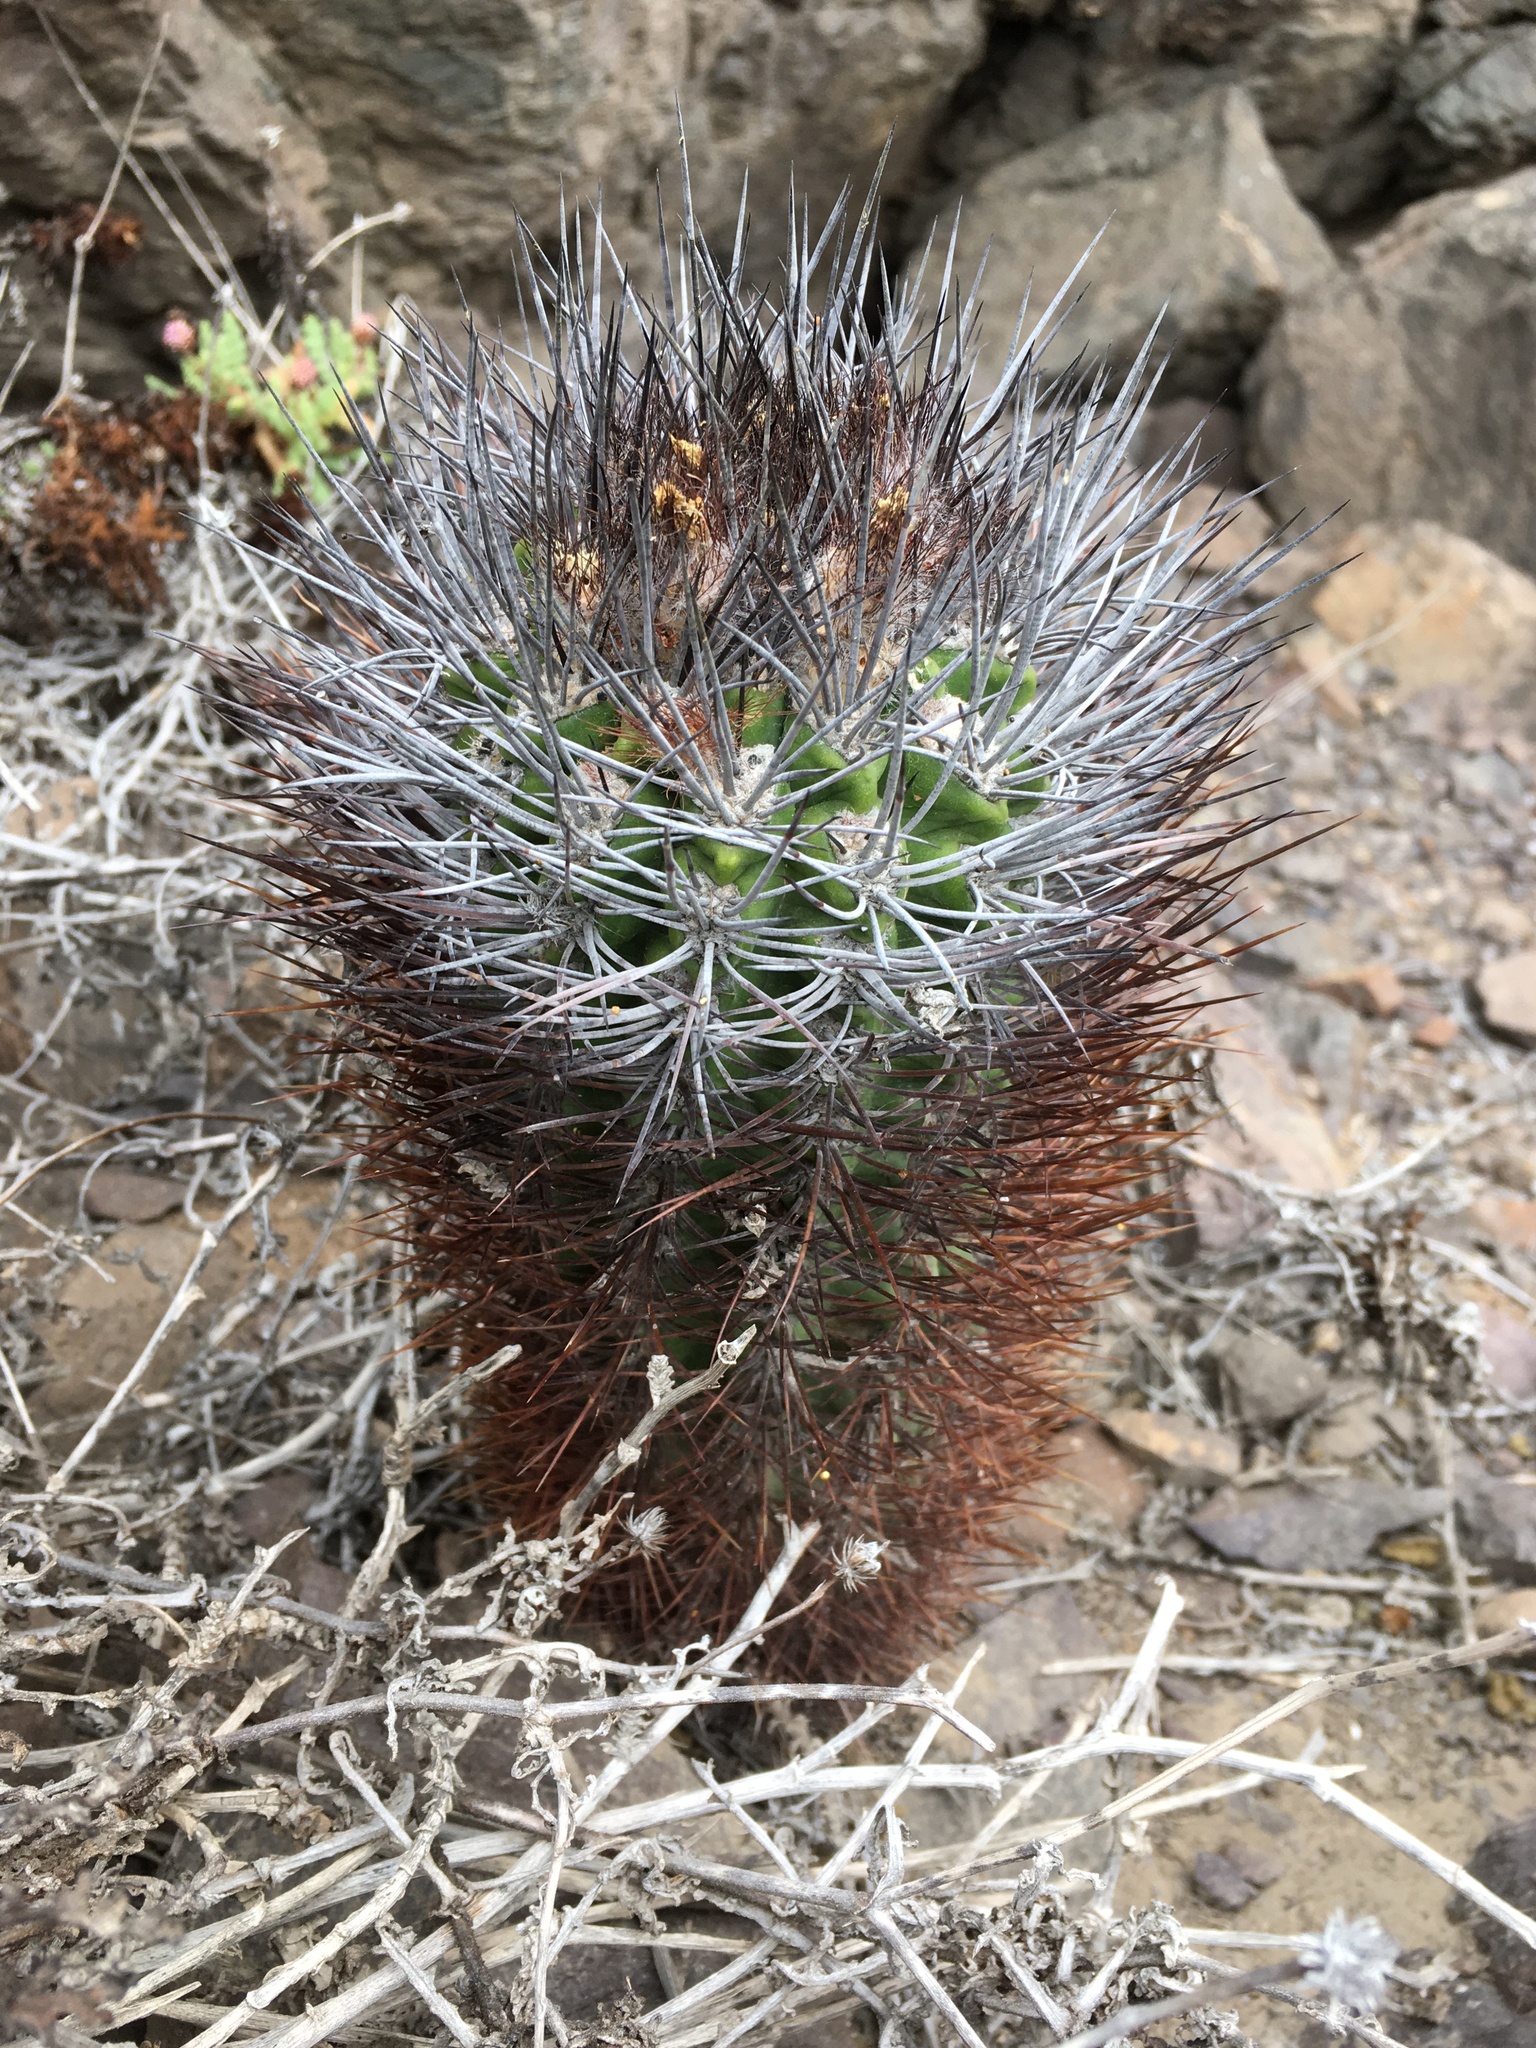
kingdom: Plantae
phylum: Tracheophyta
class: Magnoliopsida
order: Caryophyllales
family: Cactaceae
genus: Eriosyce
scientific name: Eriosyce paucicostata
